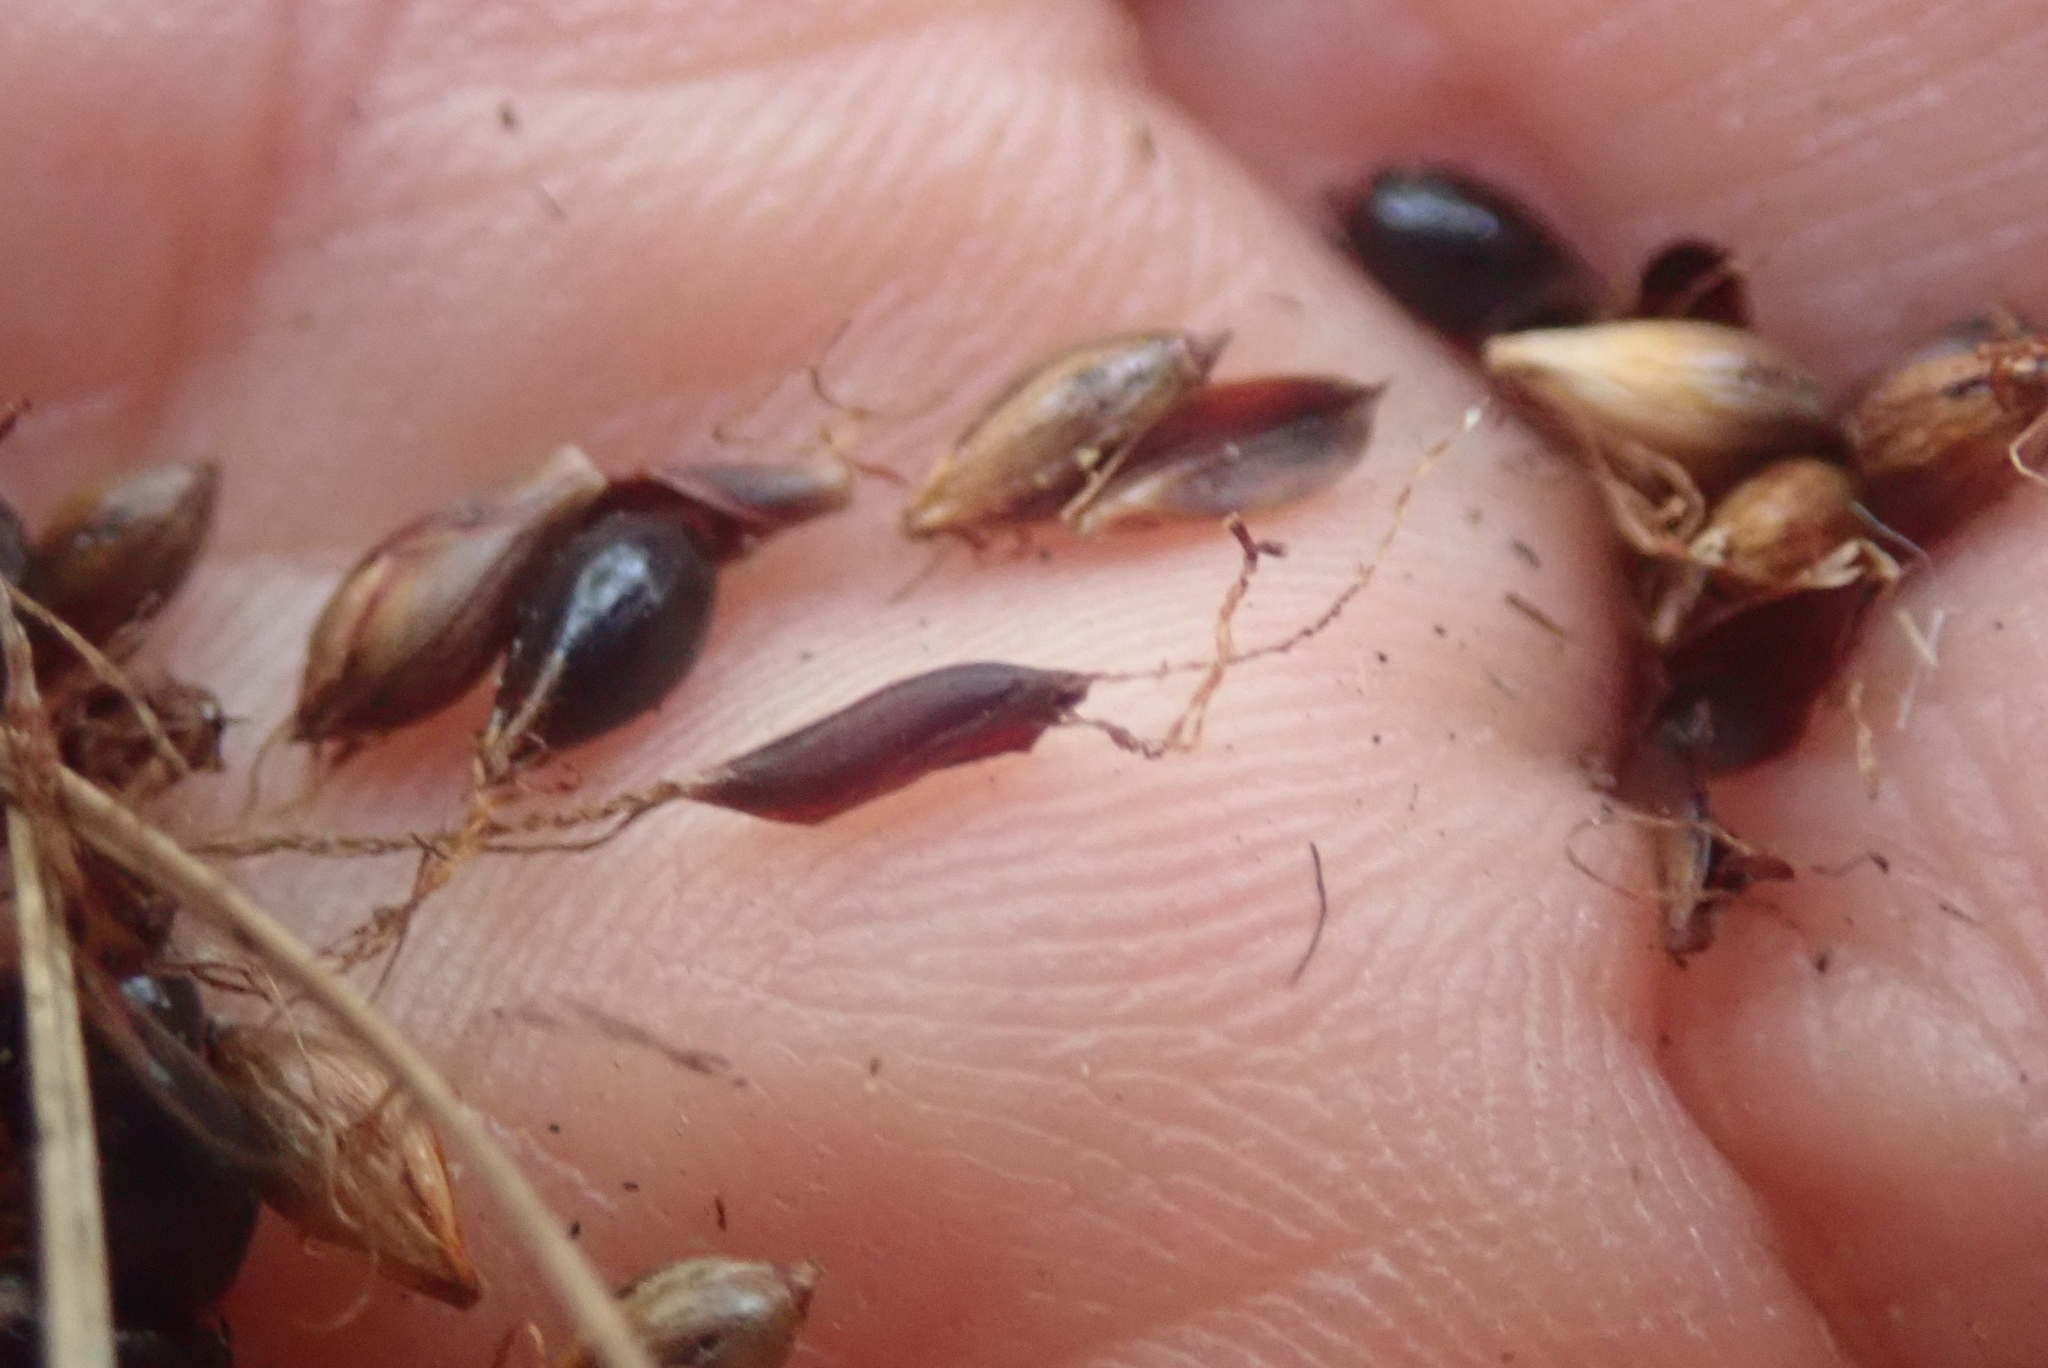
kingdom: Plantae
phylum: Tracheophyta
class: Liliopsida
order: Poales
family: Cyperaceae
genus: Gahnia
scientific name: Gahnia xanthocarpa
